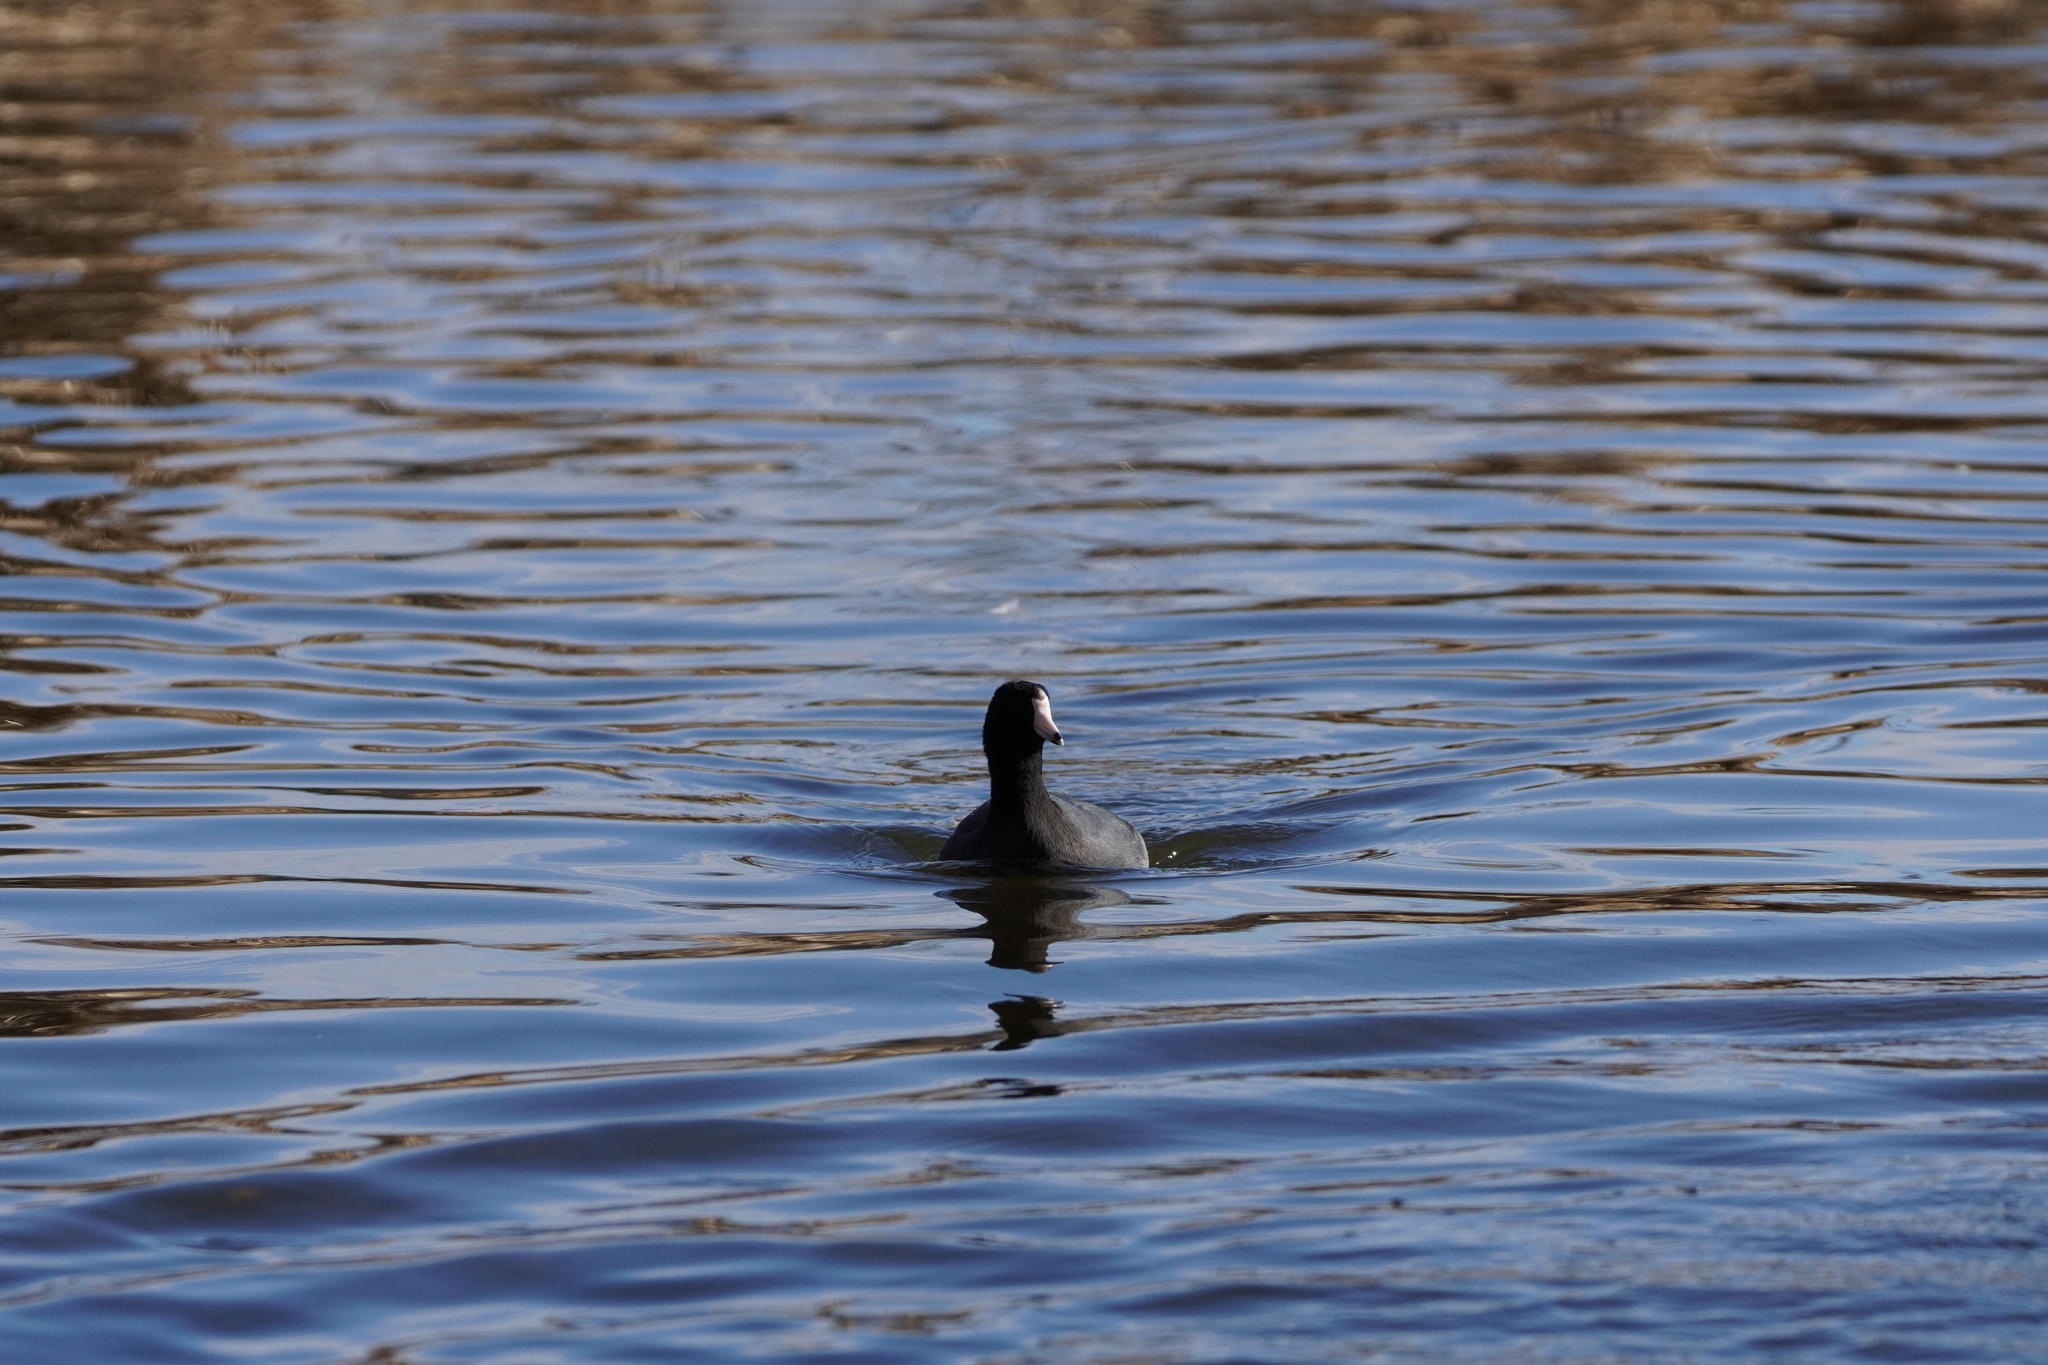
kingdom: Animalia
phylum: Chordata
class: Aves
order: Gruiformes
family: Rallidae
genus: Fulica
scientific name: Fulica americana
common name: American coot
